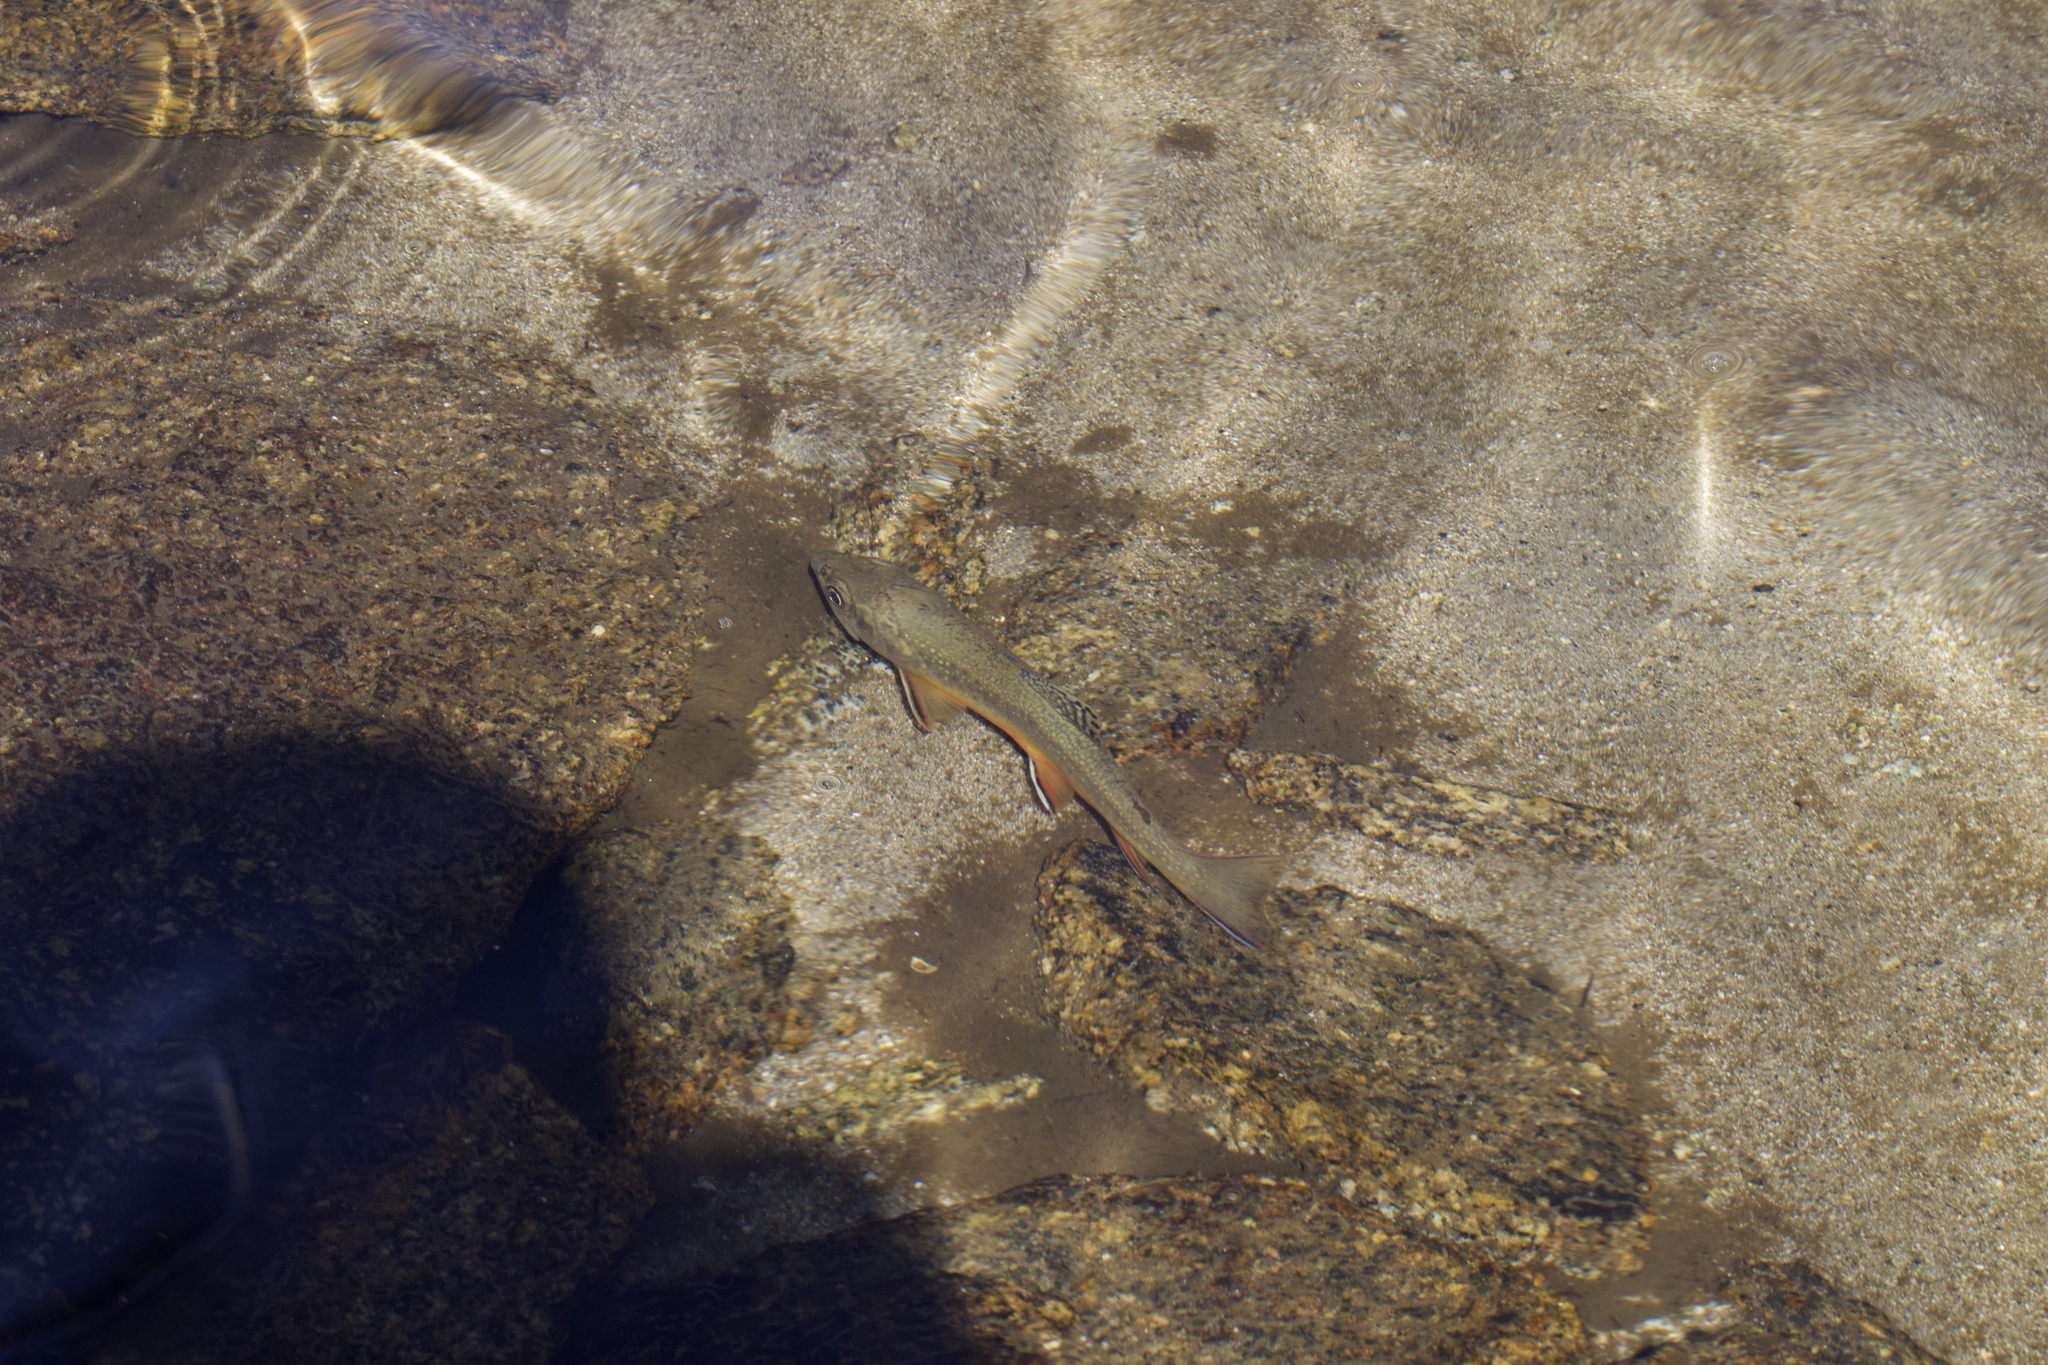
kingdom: Animalia
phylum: Chordata
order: Salmoniformes
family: Salmonidae
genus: Salvelinus
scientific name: Salvelinus fontinalis
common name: Brook trout
